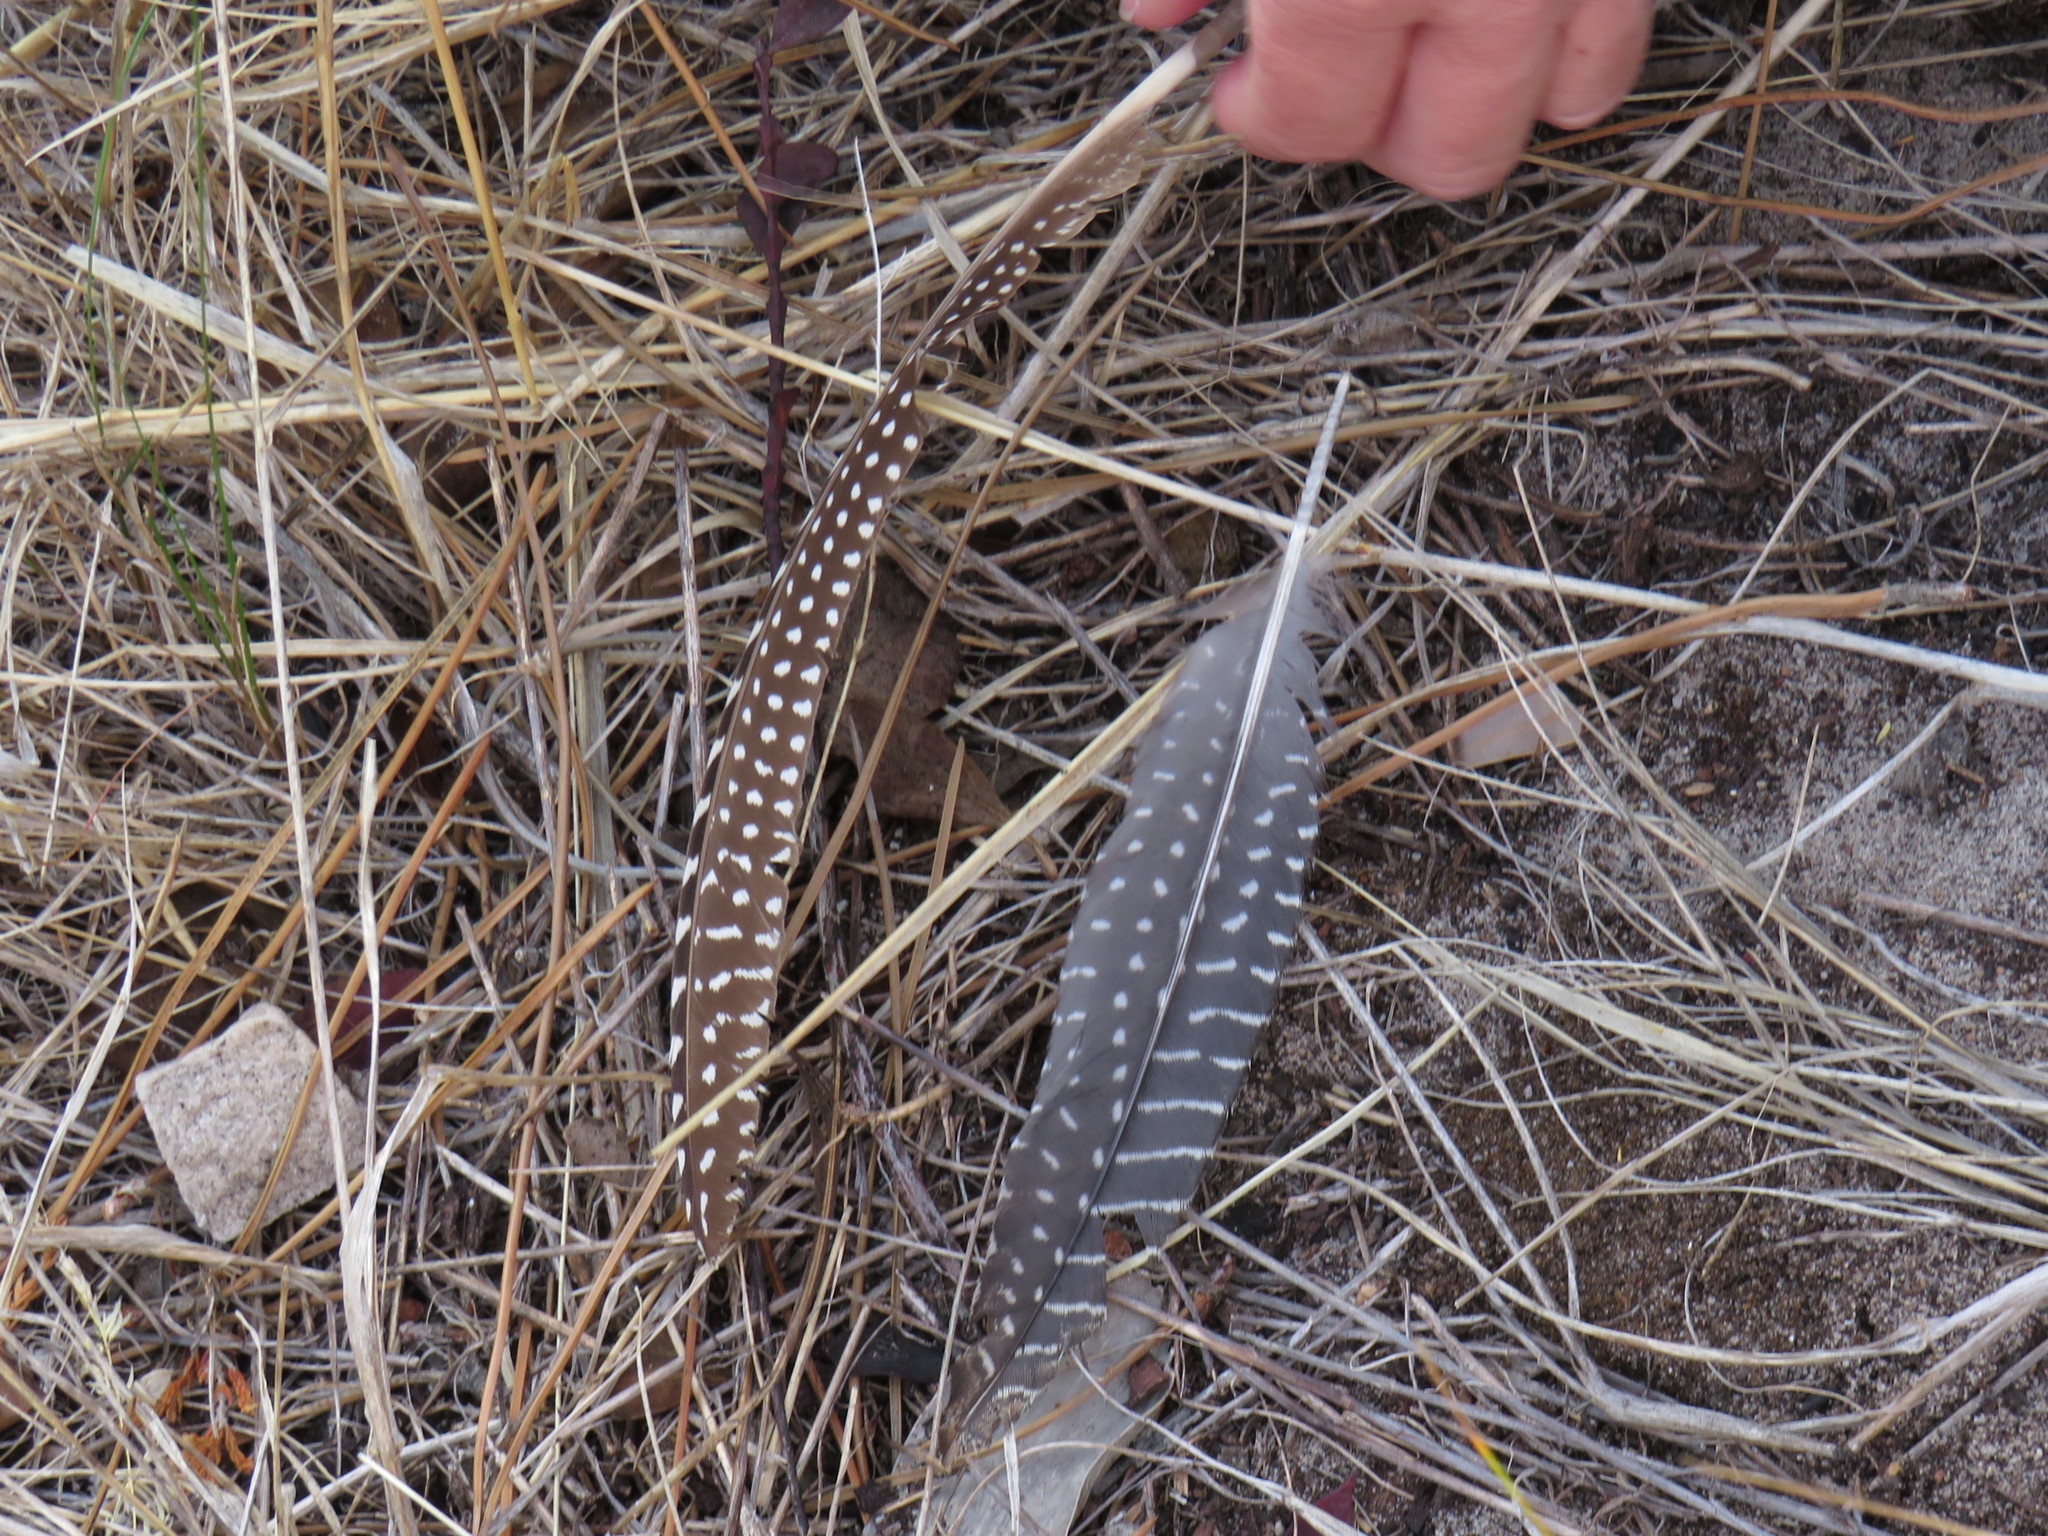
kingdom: Animalia
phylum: Chordata
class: Aves
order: Galliformes
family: Numididae
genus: Numida
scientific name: Numida meleagris
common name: Helmeted guineafowl
